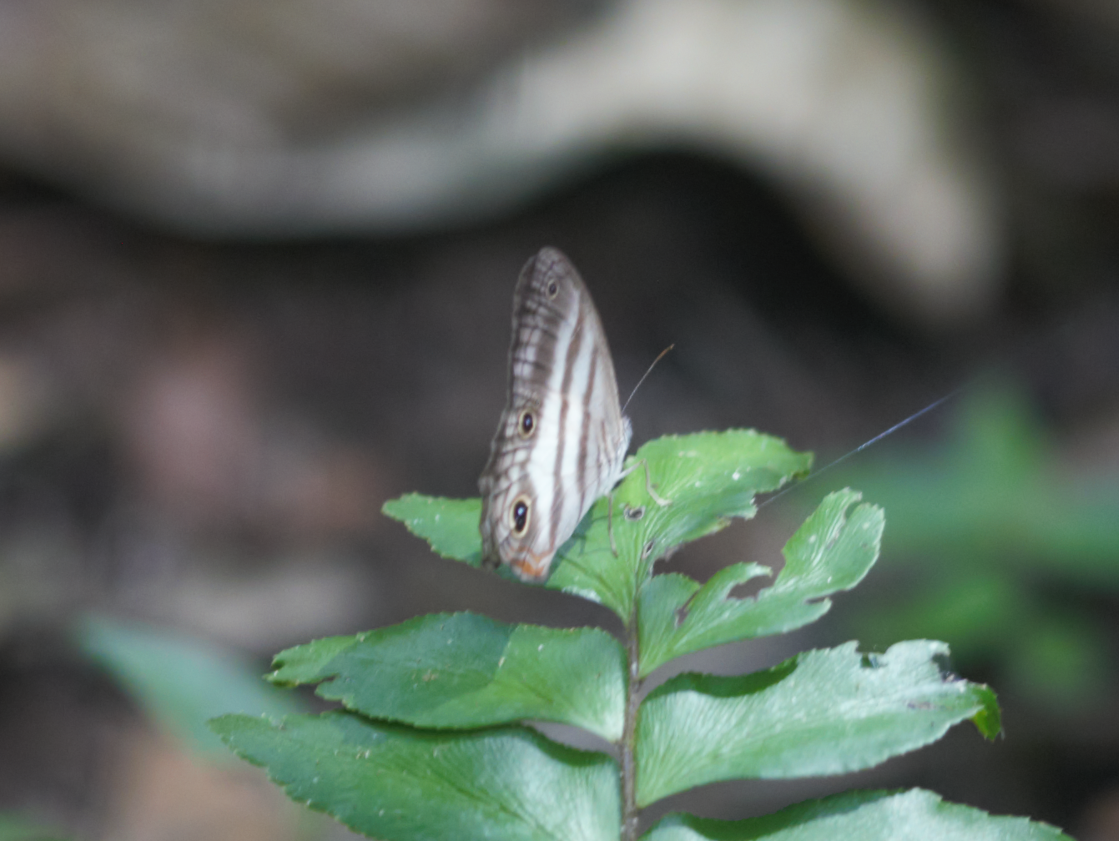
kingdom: Animalia
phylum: Arthropoda
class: Insecta
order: Lepidoptera
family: Nymphalidae
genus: Pareuptychia
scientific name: Pareuptychia hesione
